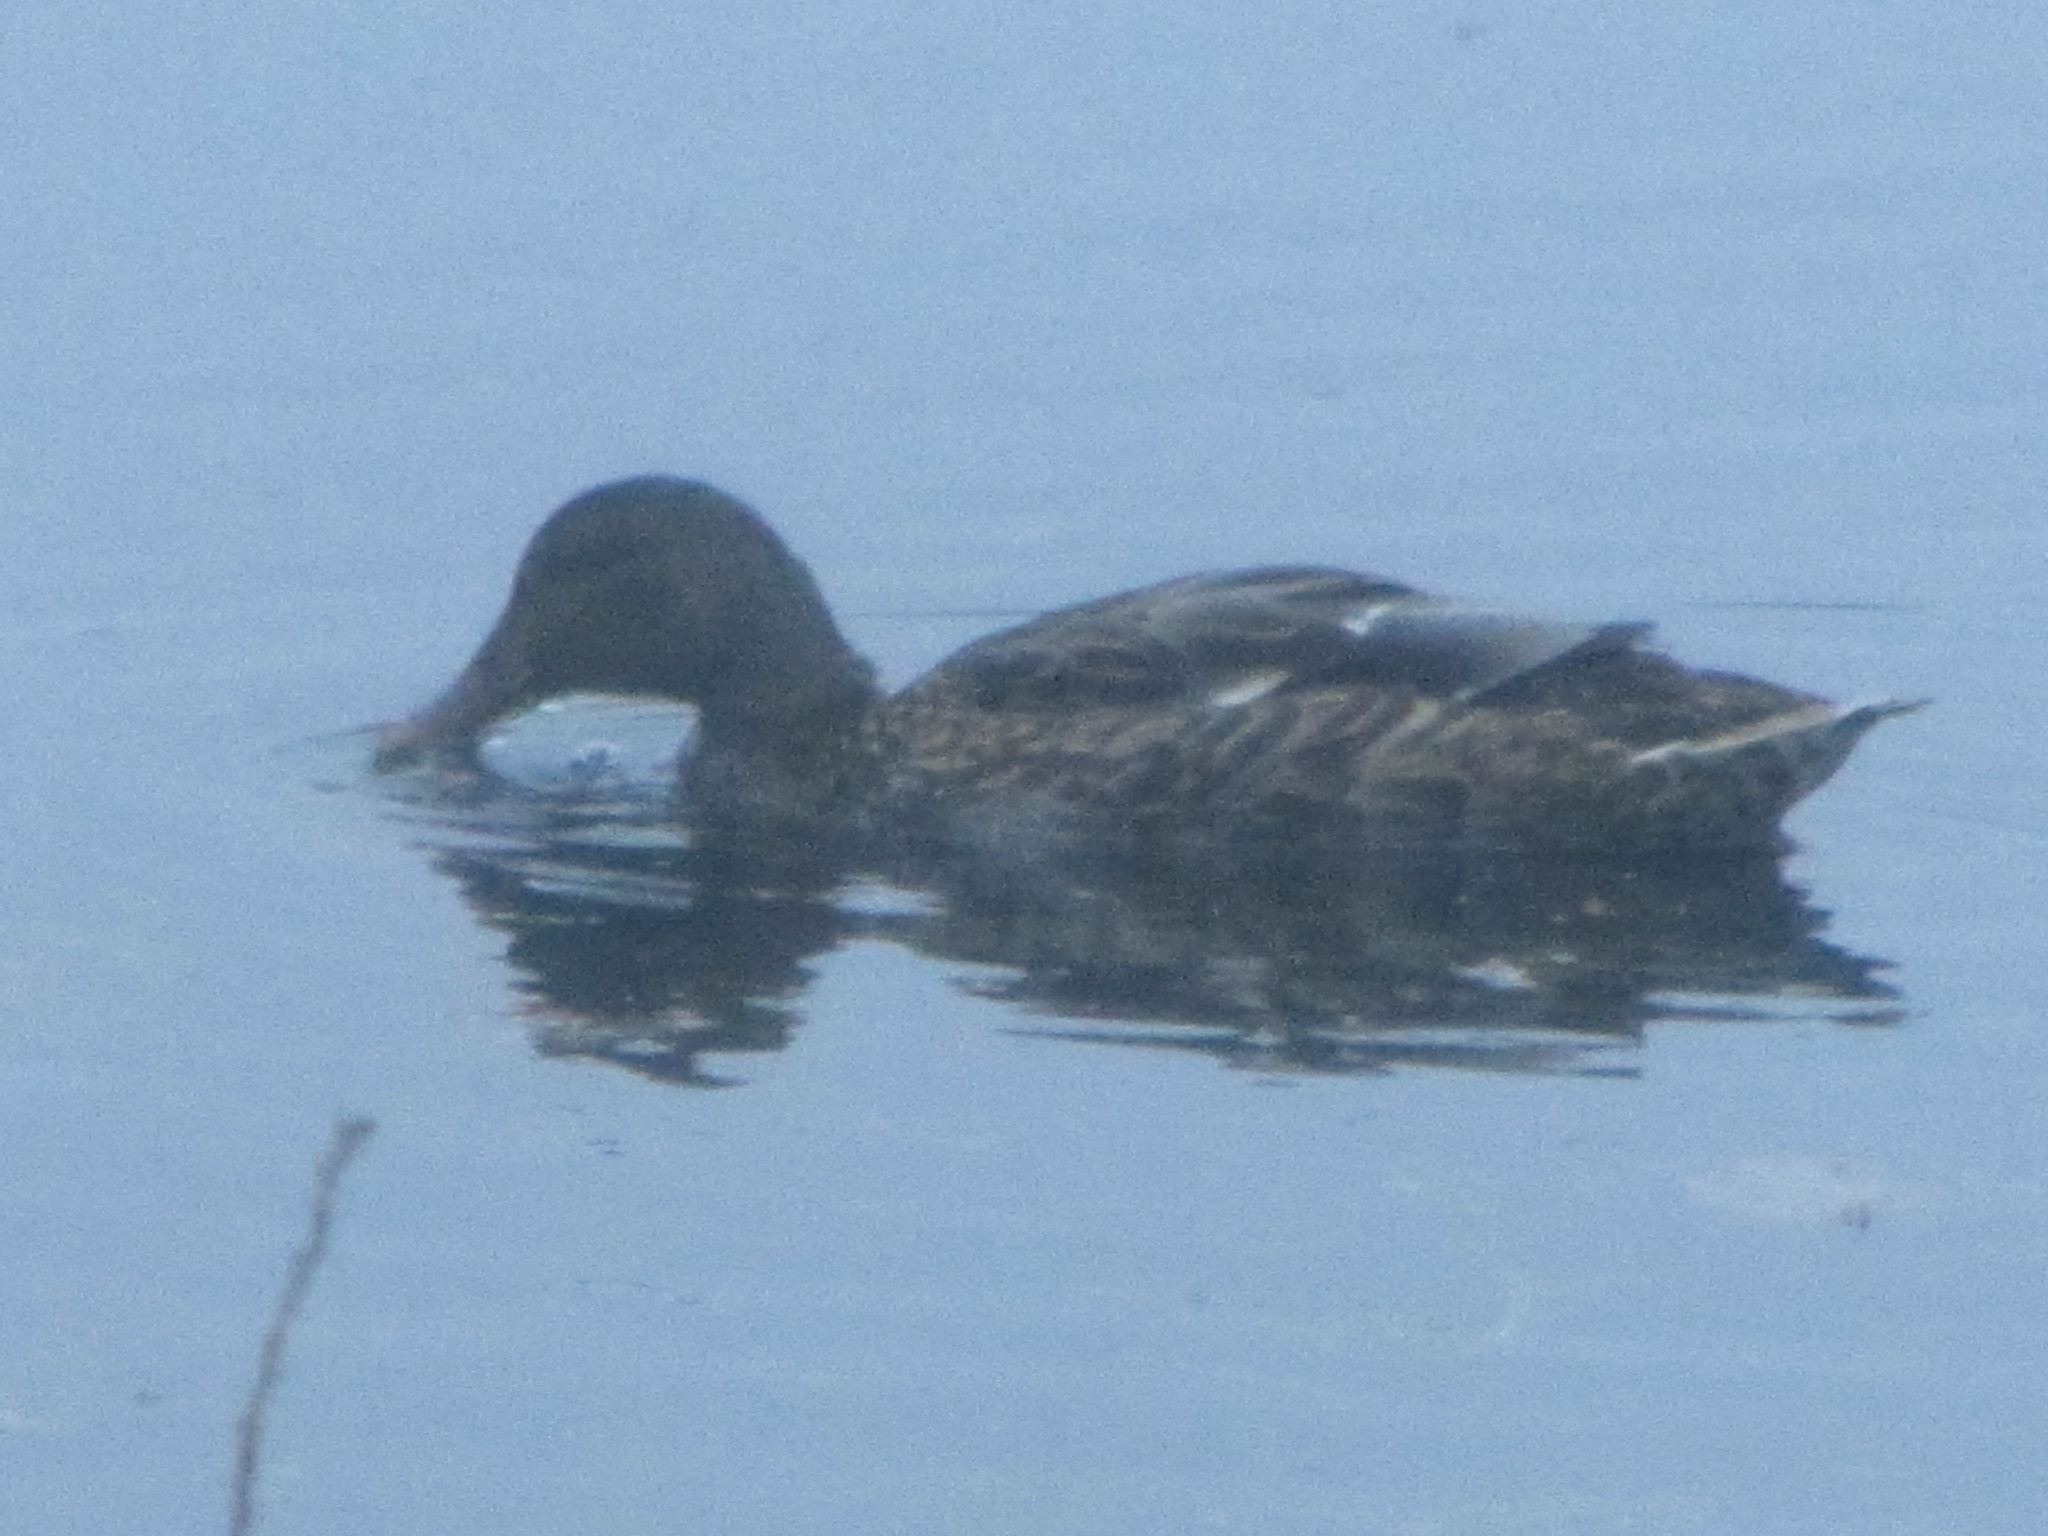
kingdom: Animalia
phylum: Chordata
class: Aves
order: Anseriformes
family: Anatidae
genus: Anas
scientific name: Anas platyrhynchos
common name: Mallard
